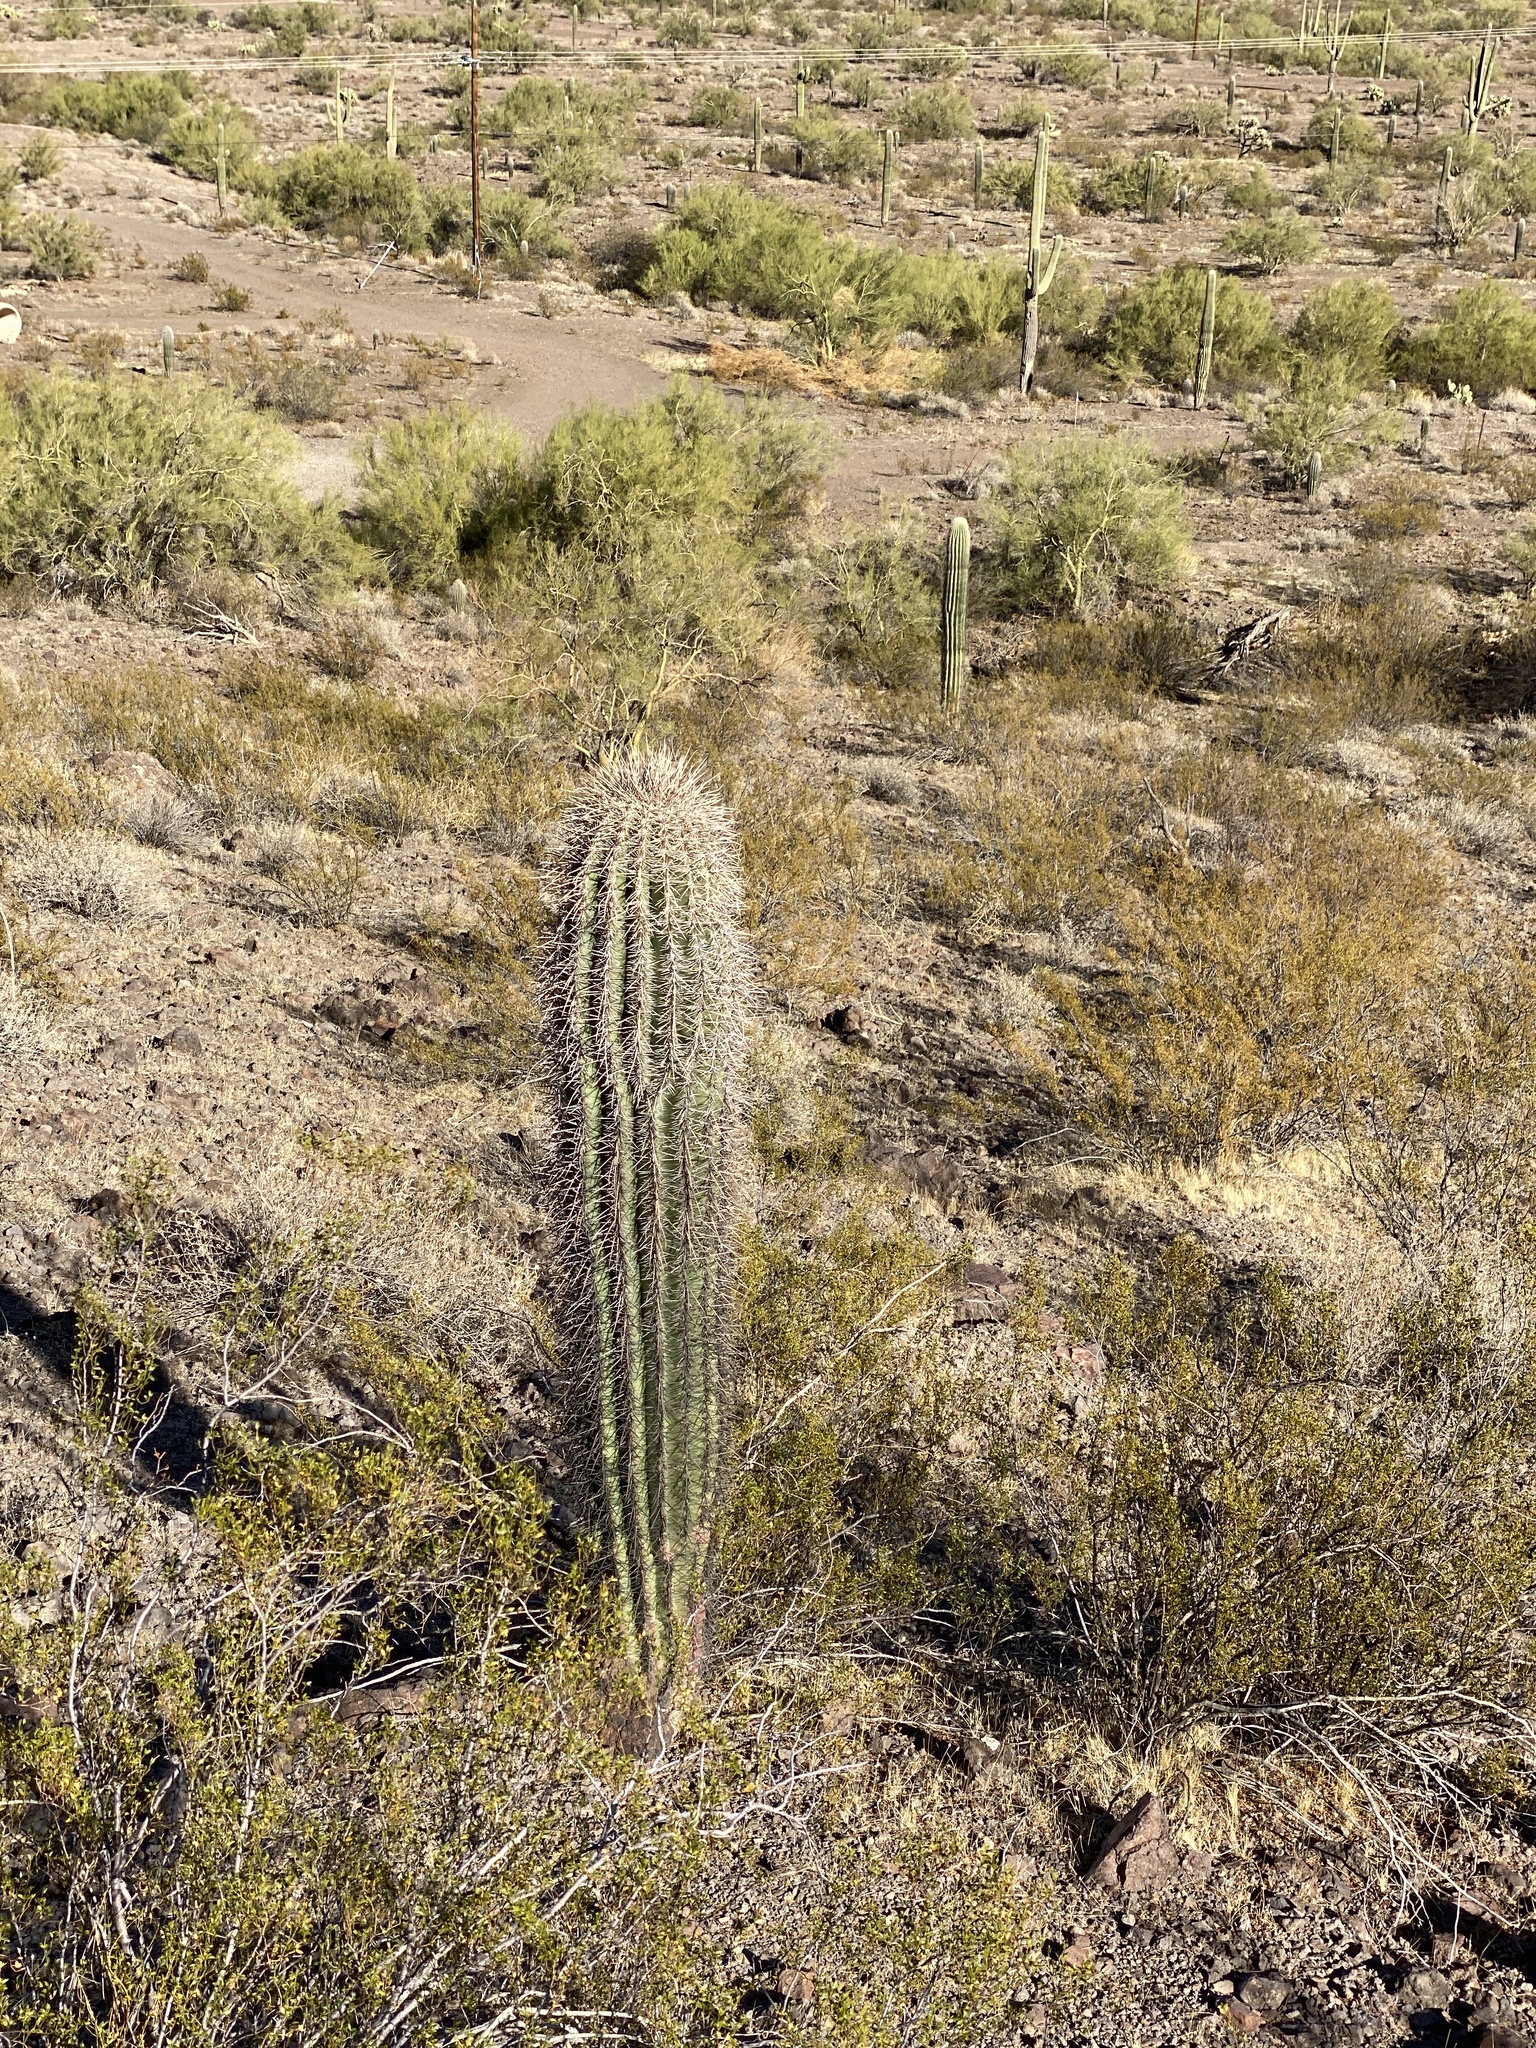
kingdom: Plantae
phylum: Tracheophyta
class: Magnoliopsida
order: Caryophyllales
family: Cactaceae
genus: Carnegiea
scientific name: Carnegiea gigantea
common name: Saguaro
